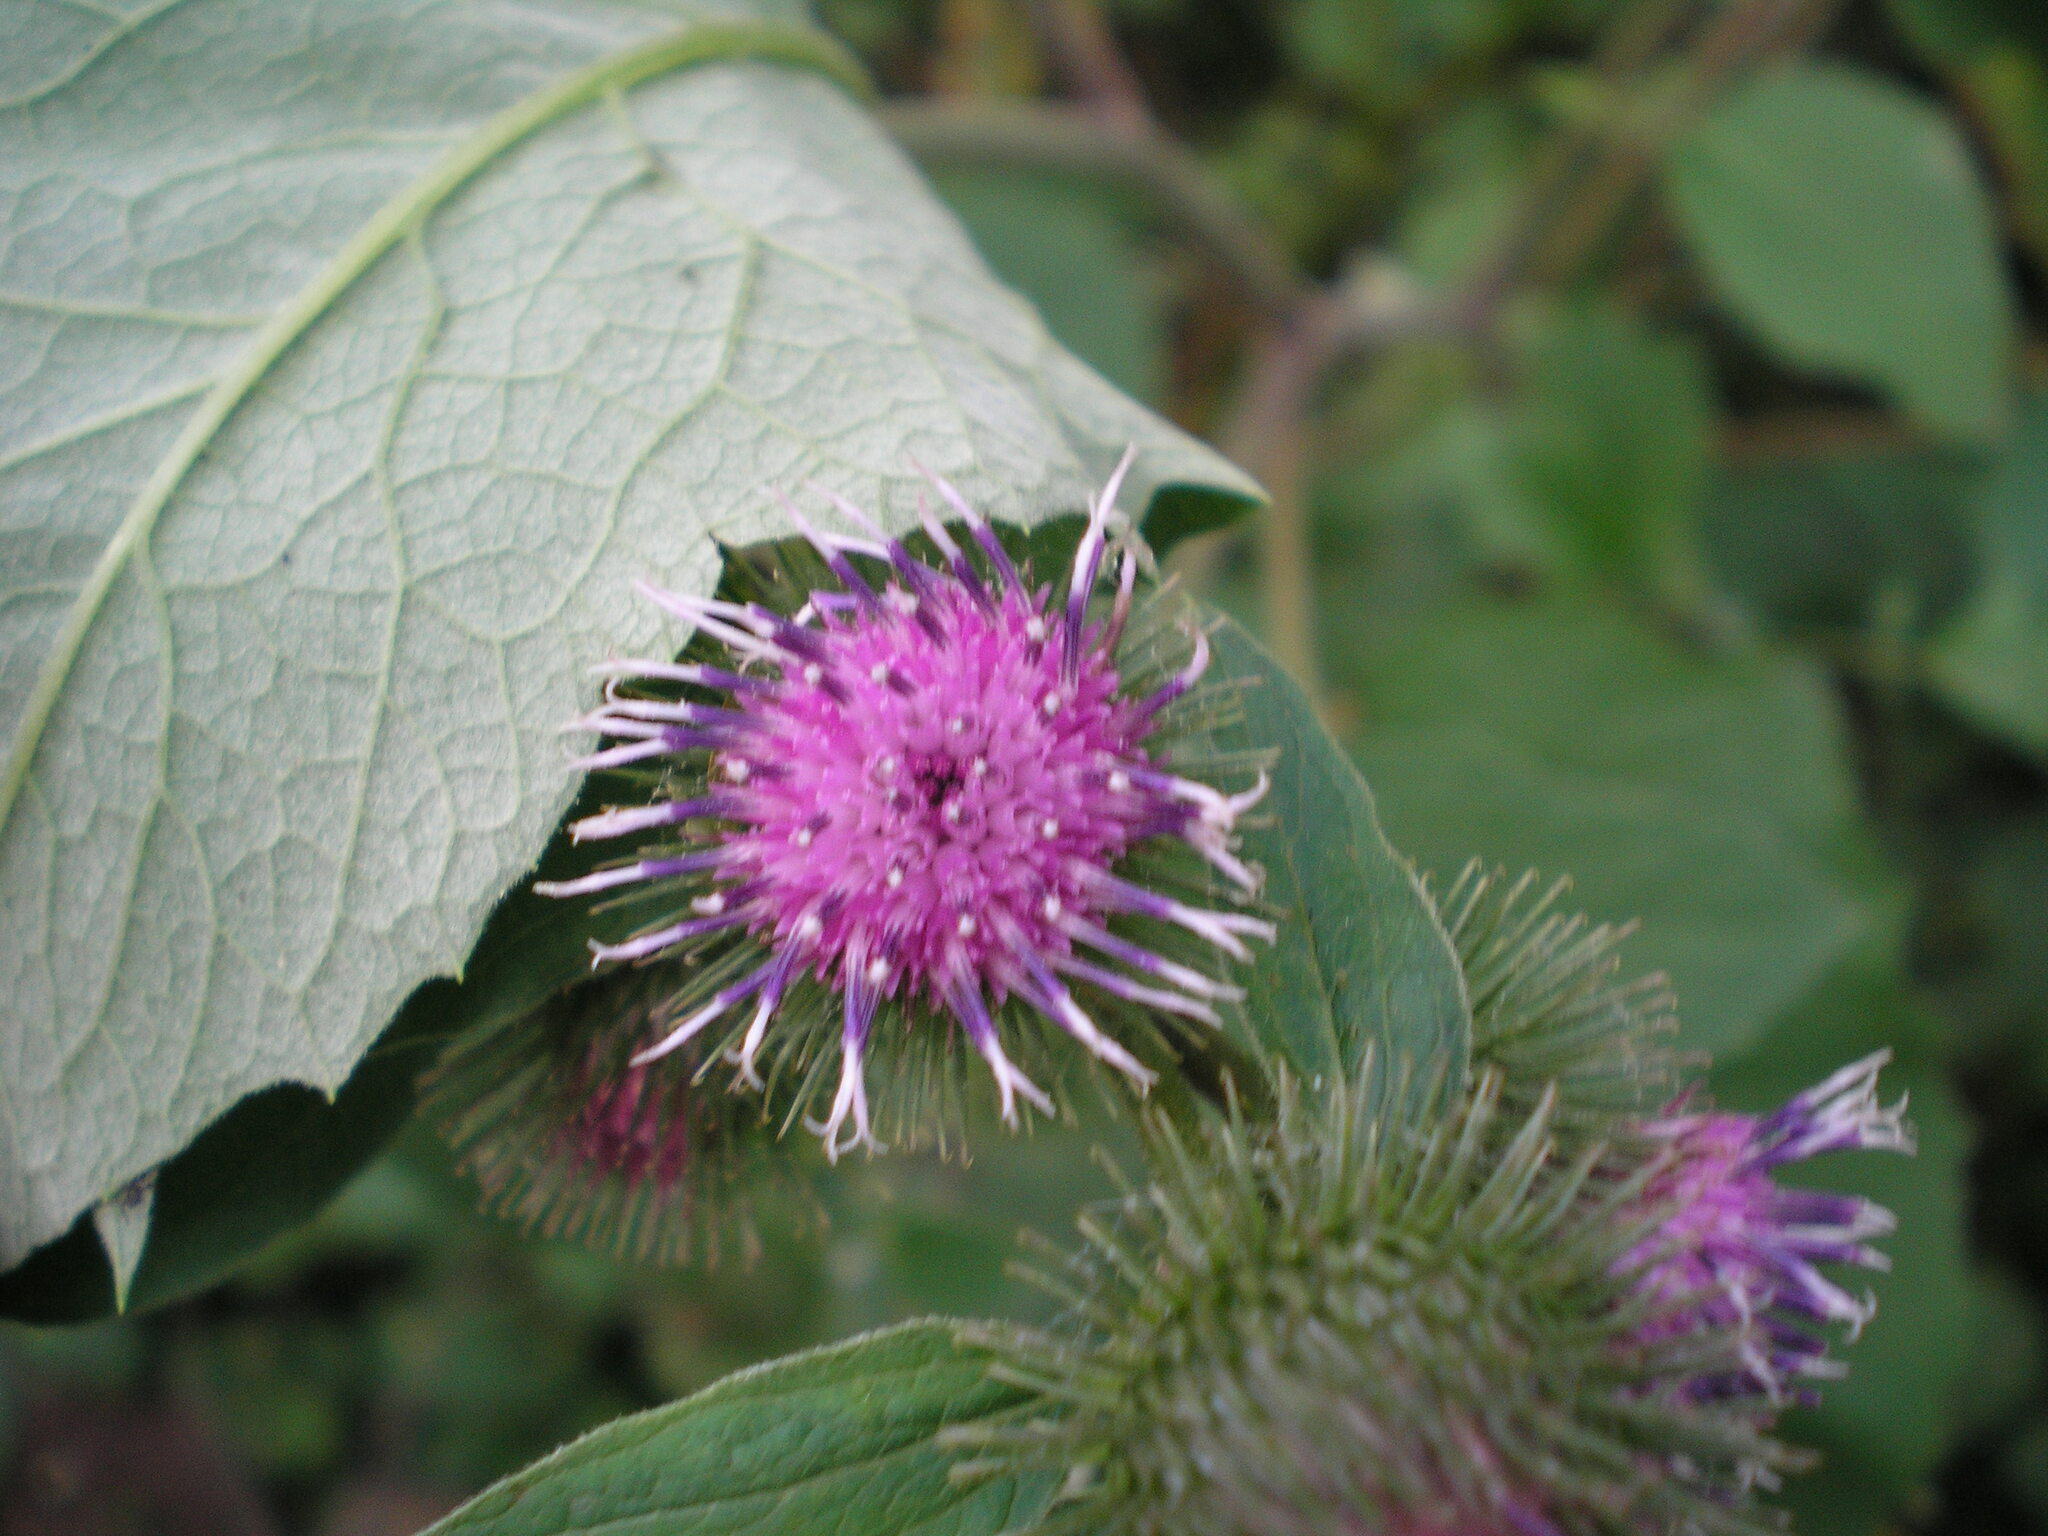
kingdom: Plantae
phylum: Tracheophyta
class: Magnoliopsida
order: Asterales
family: Asteraceae
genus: Arctium
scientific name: Arctium minus
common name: Lesser burdock
